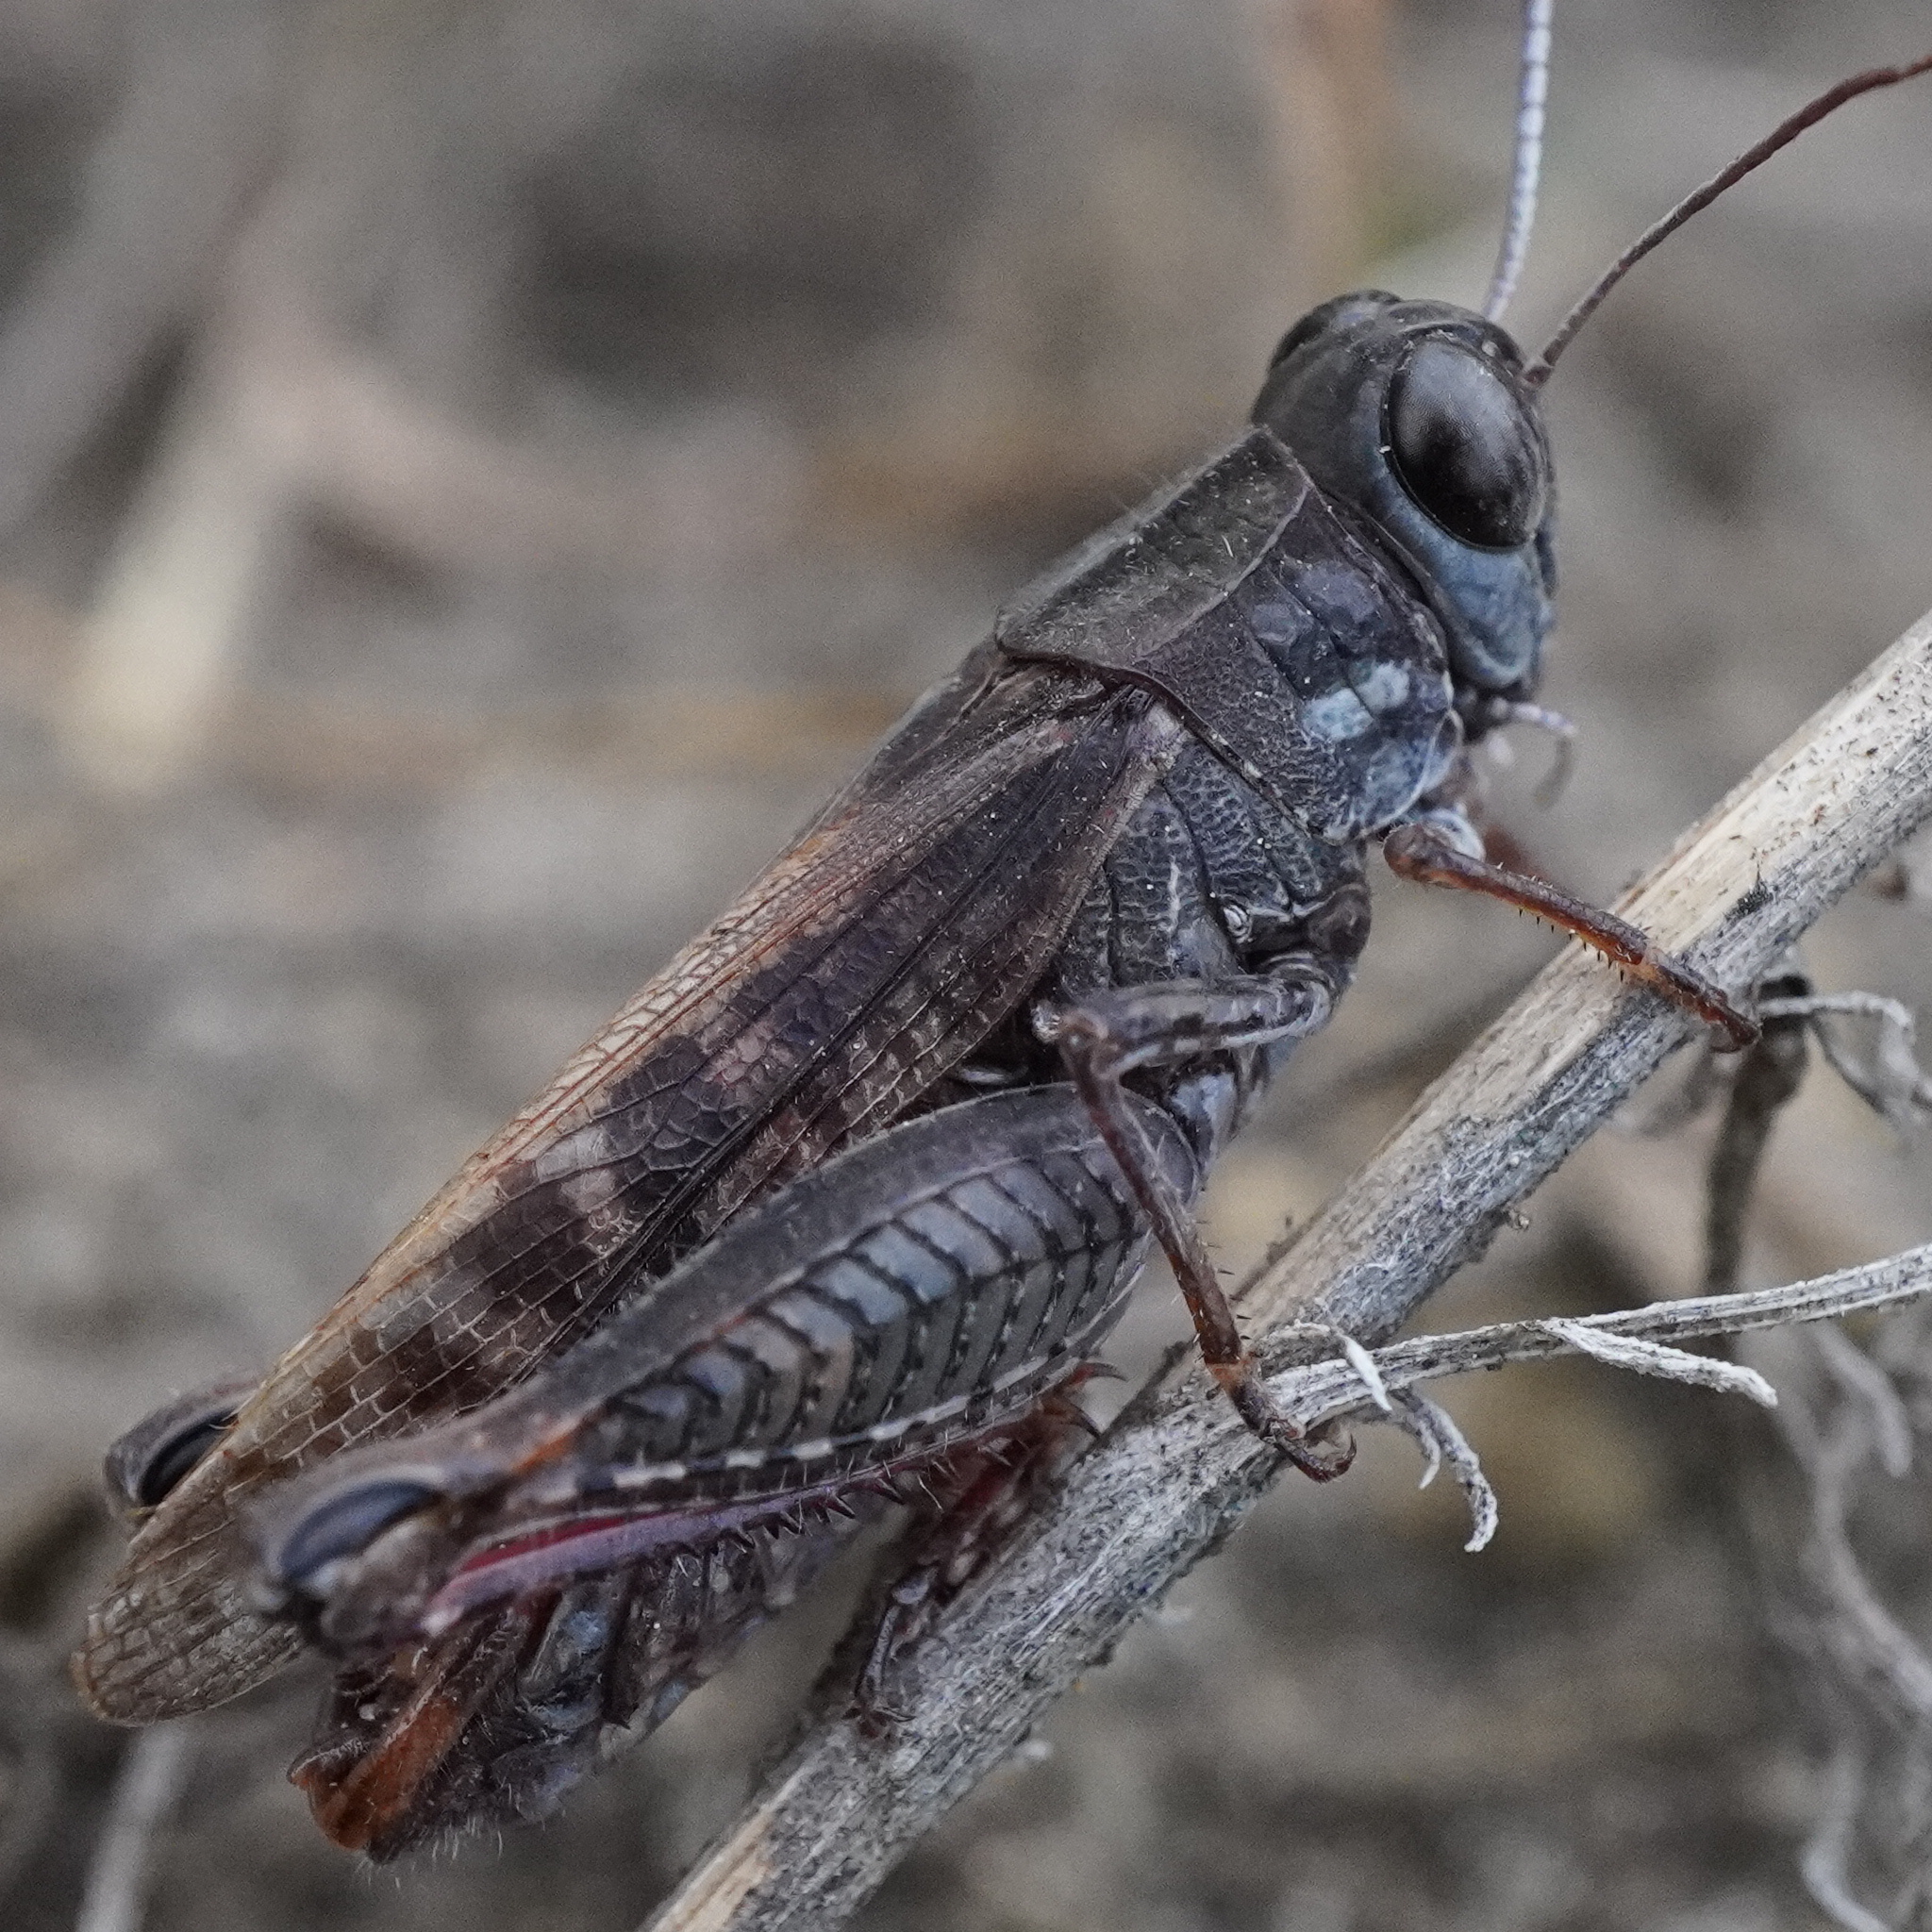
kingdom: Animalia
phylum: Arthropoda
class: Insecta
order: Orthoptera
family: Acrididae
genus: Calliptamus
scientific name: Calliptamus italicus
